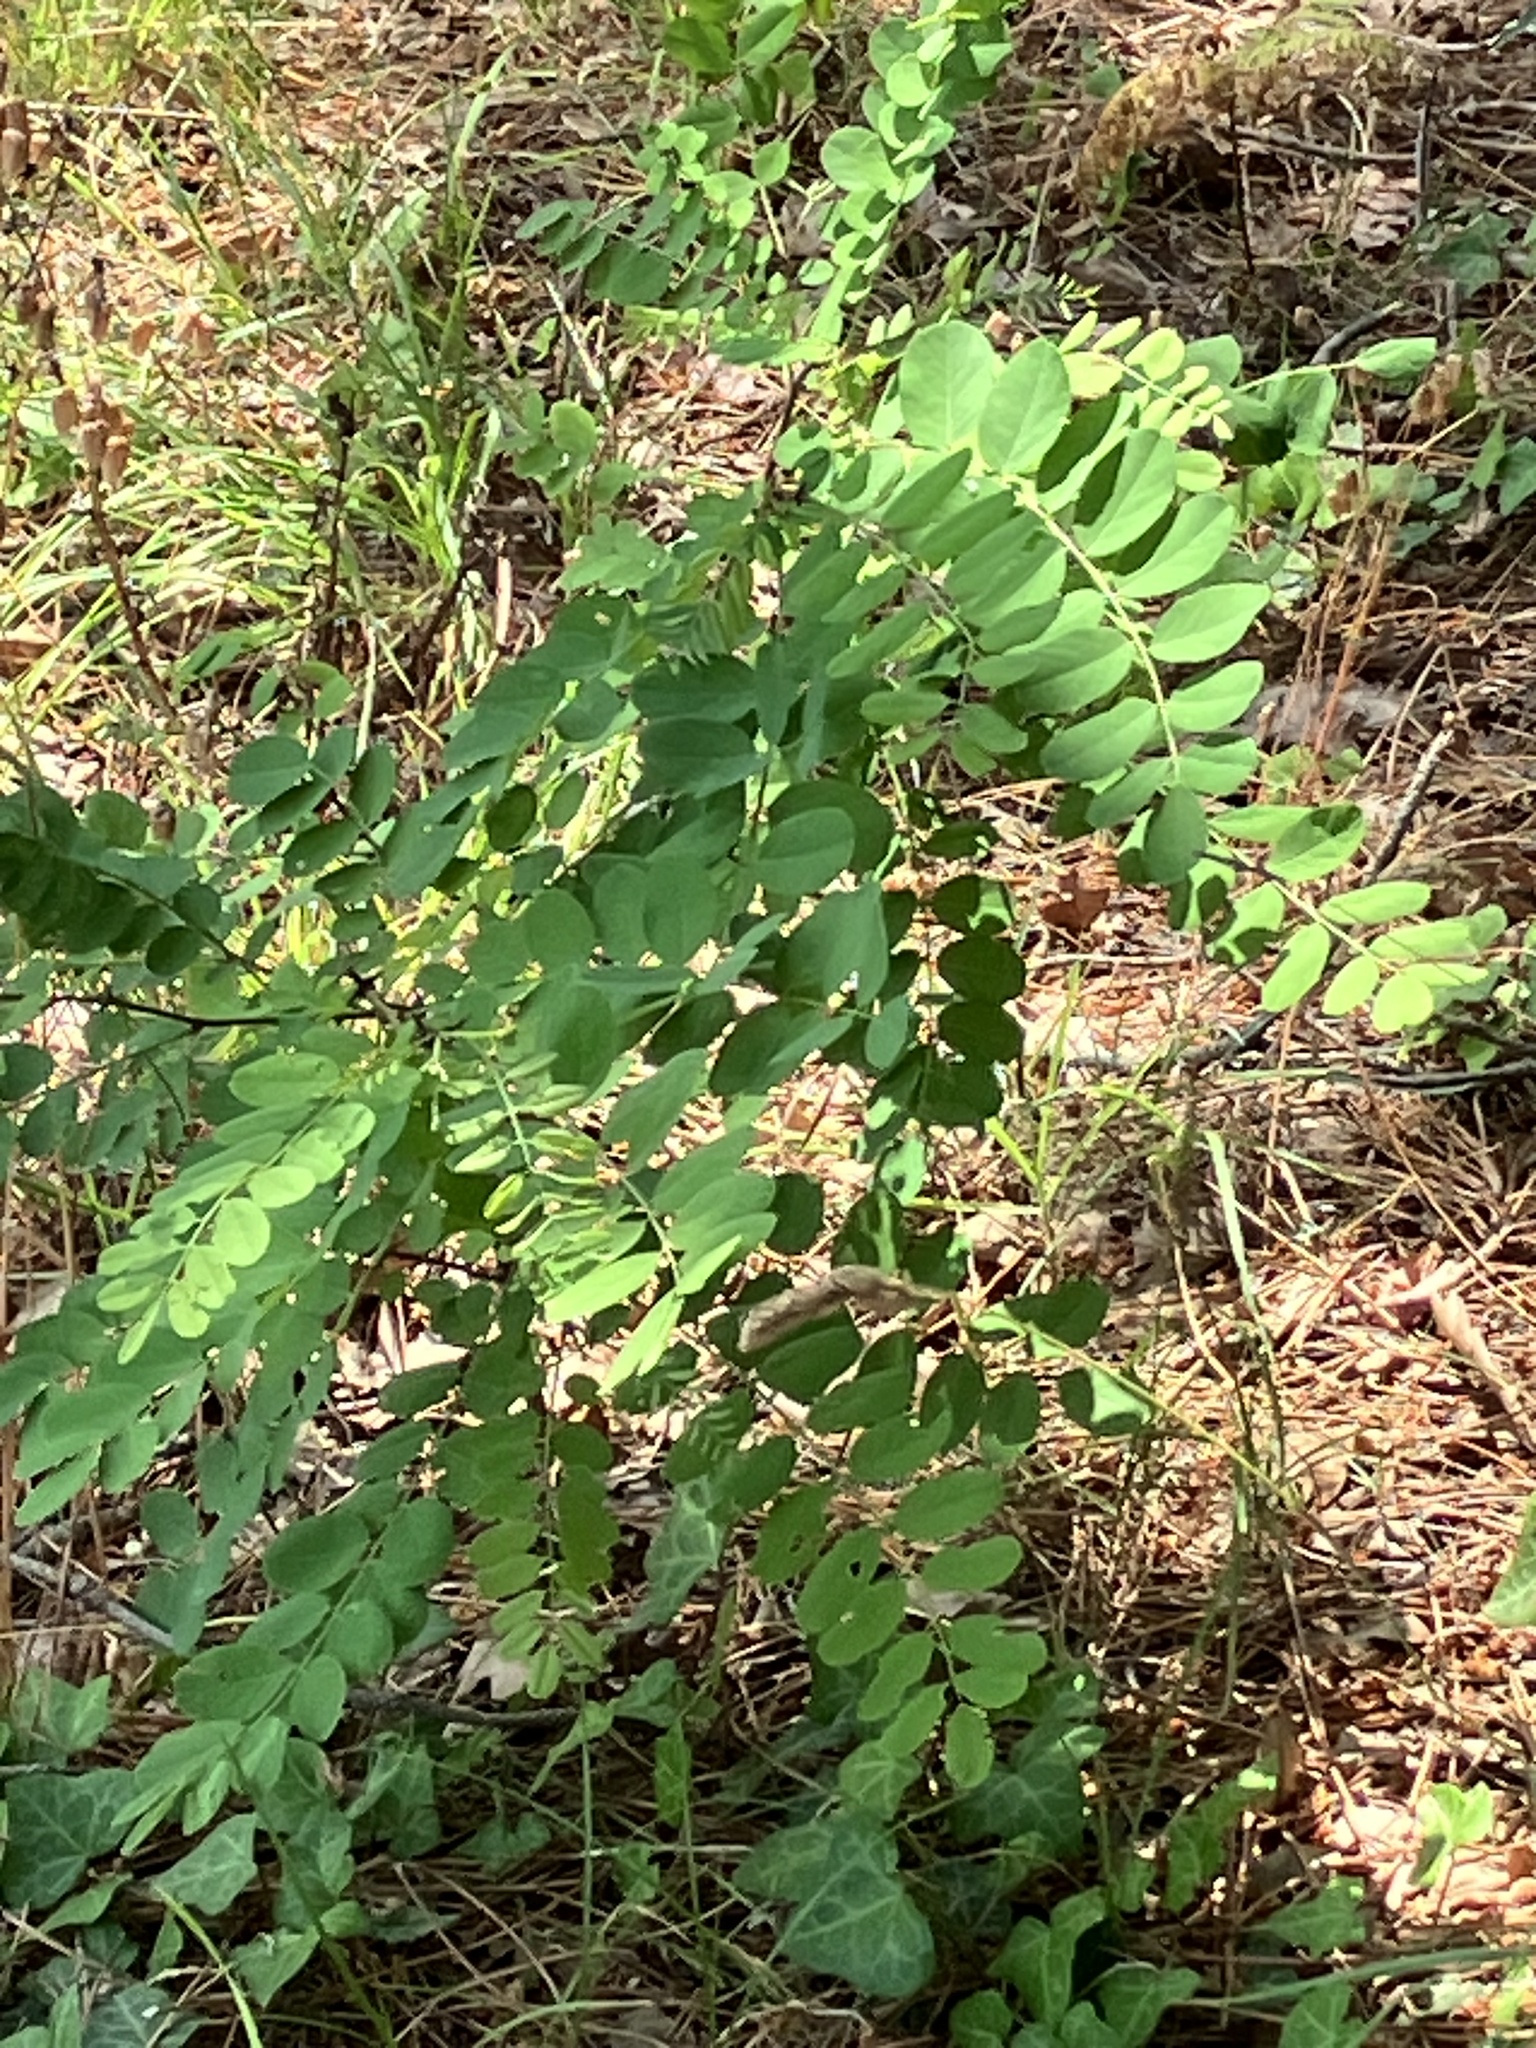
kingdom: Plantae
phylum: Tracheophyta
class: Magnoliopsida
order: Fabales
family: Fabaceae
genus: Robinia
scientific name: Robinia pseudoacacia
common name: Black locust
